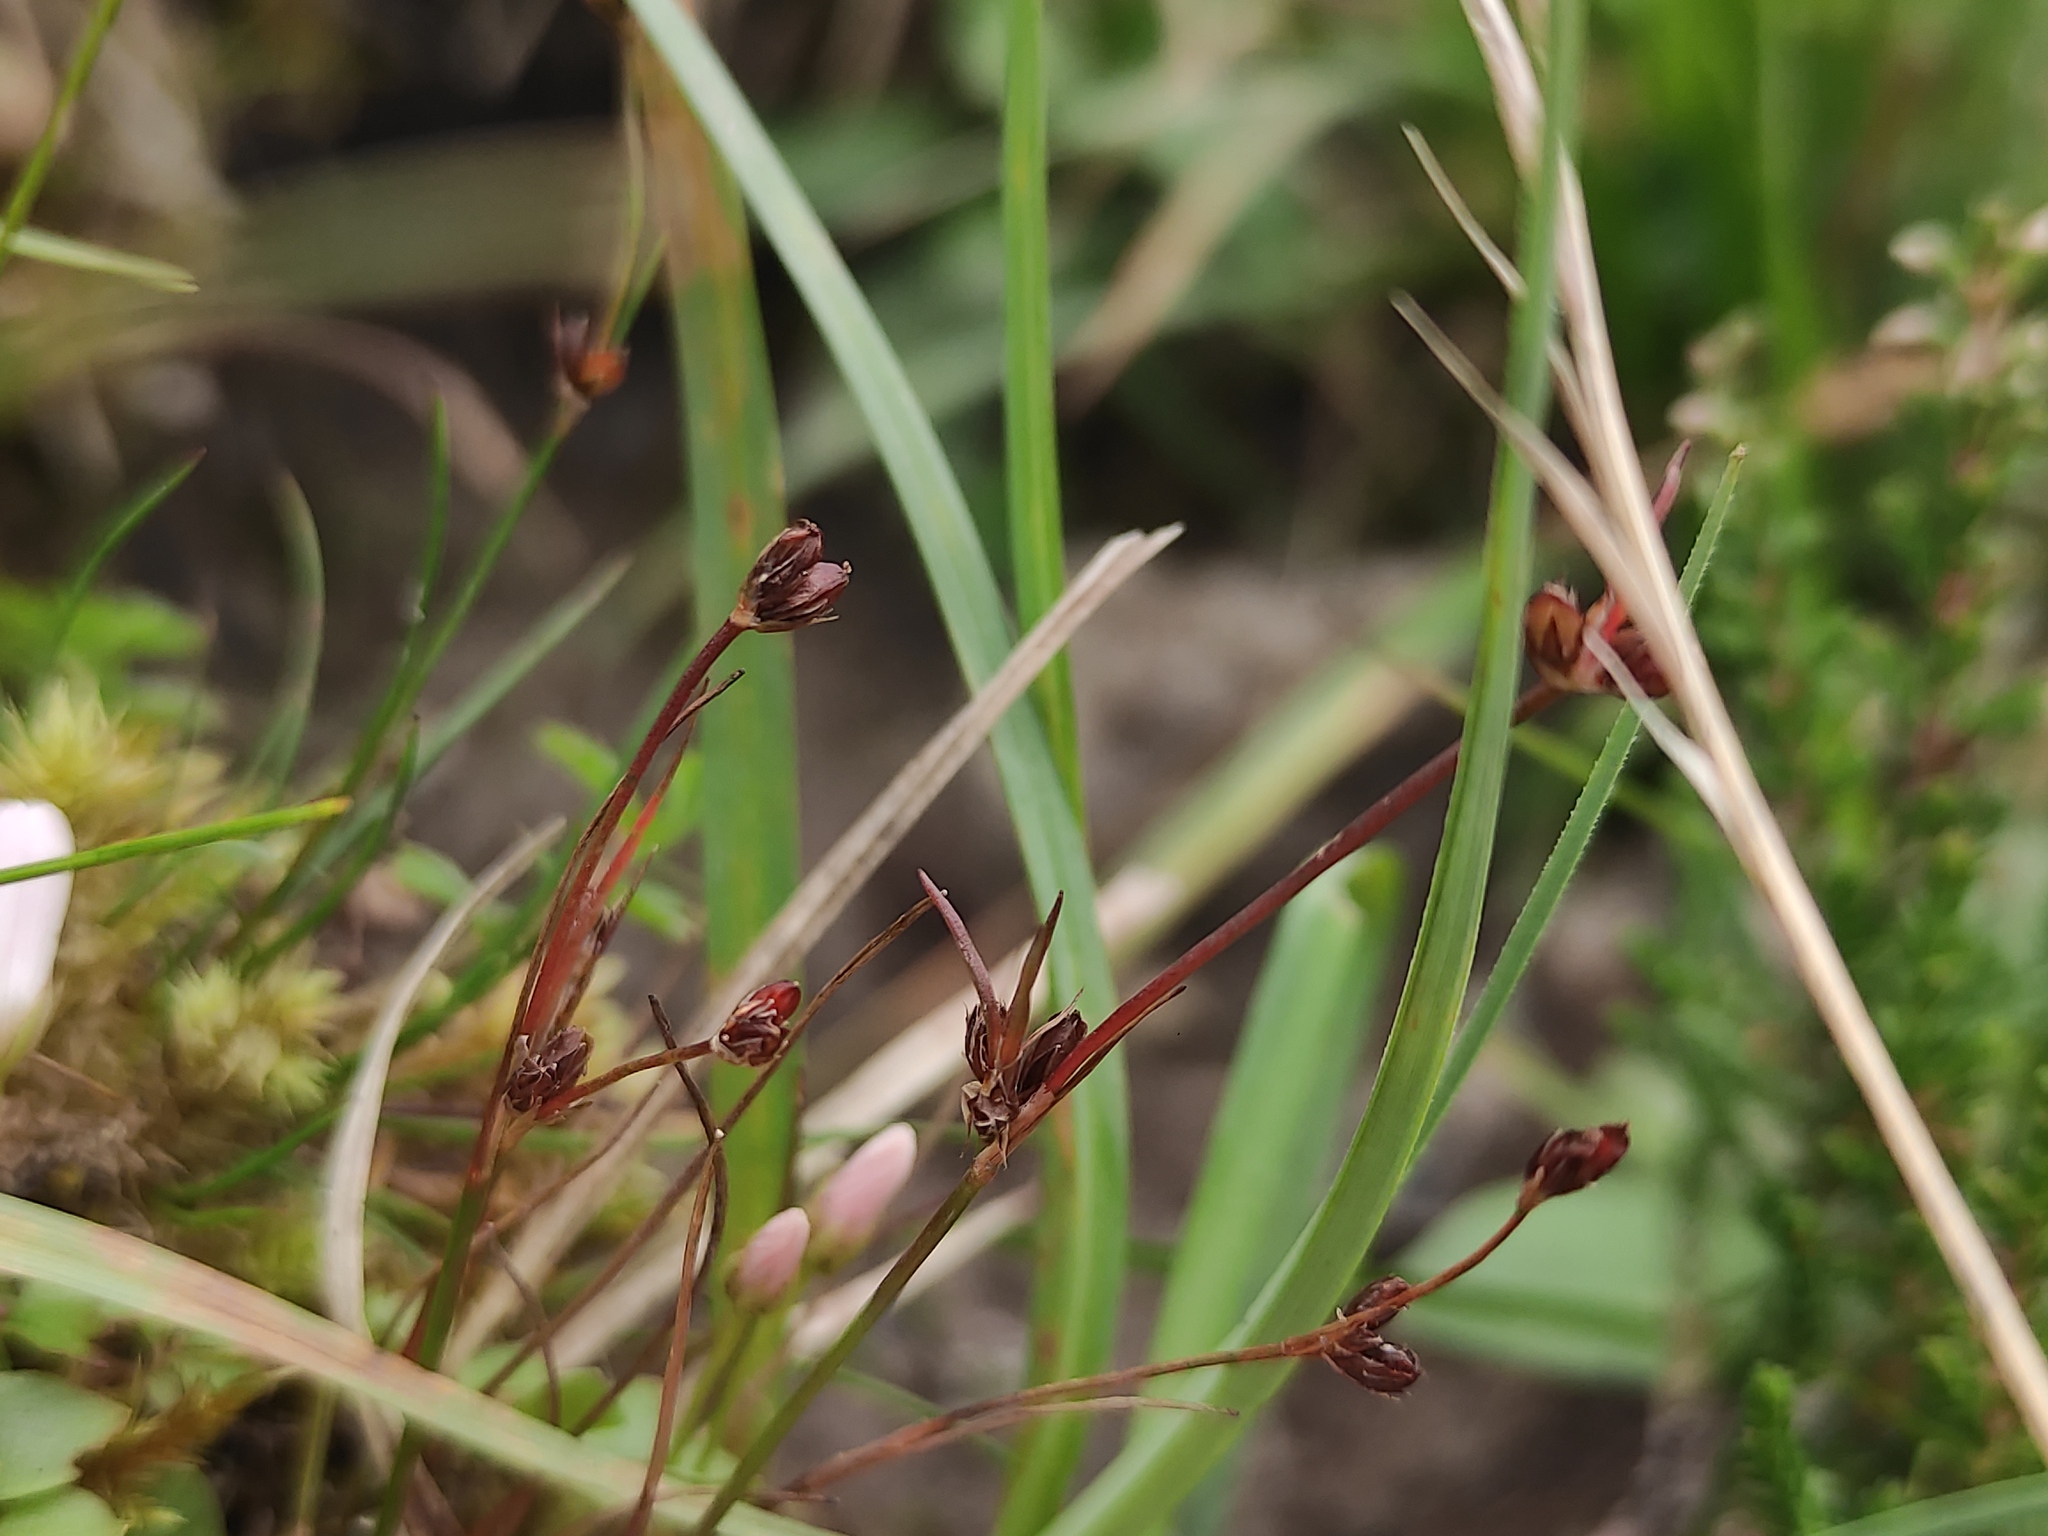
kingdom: Plantae
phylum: Tracheophyta
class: Liliopsida
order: Poales
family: Juncaceae
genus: Juncus
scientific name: Juncus bulbosus
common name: Bulbous rush
